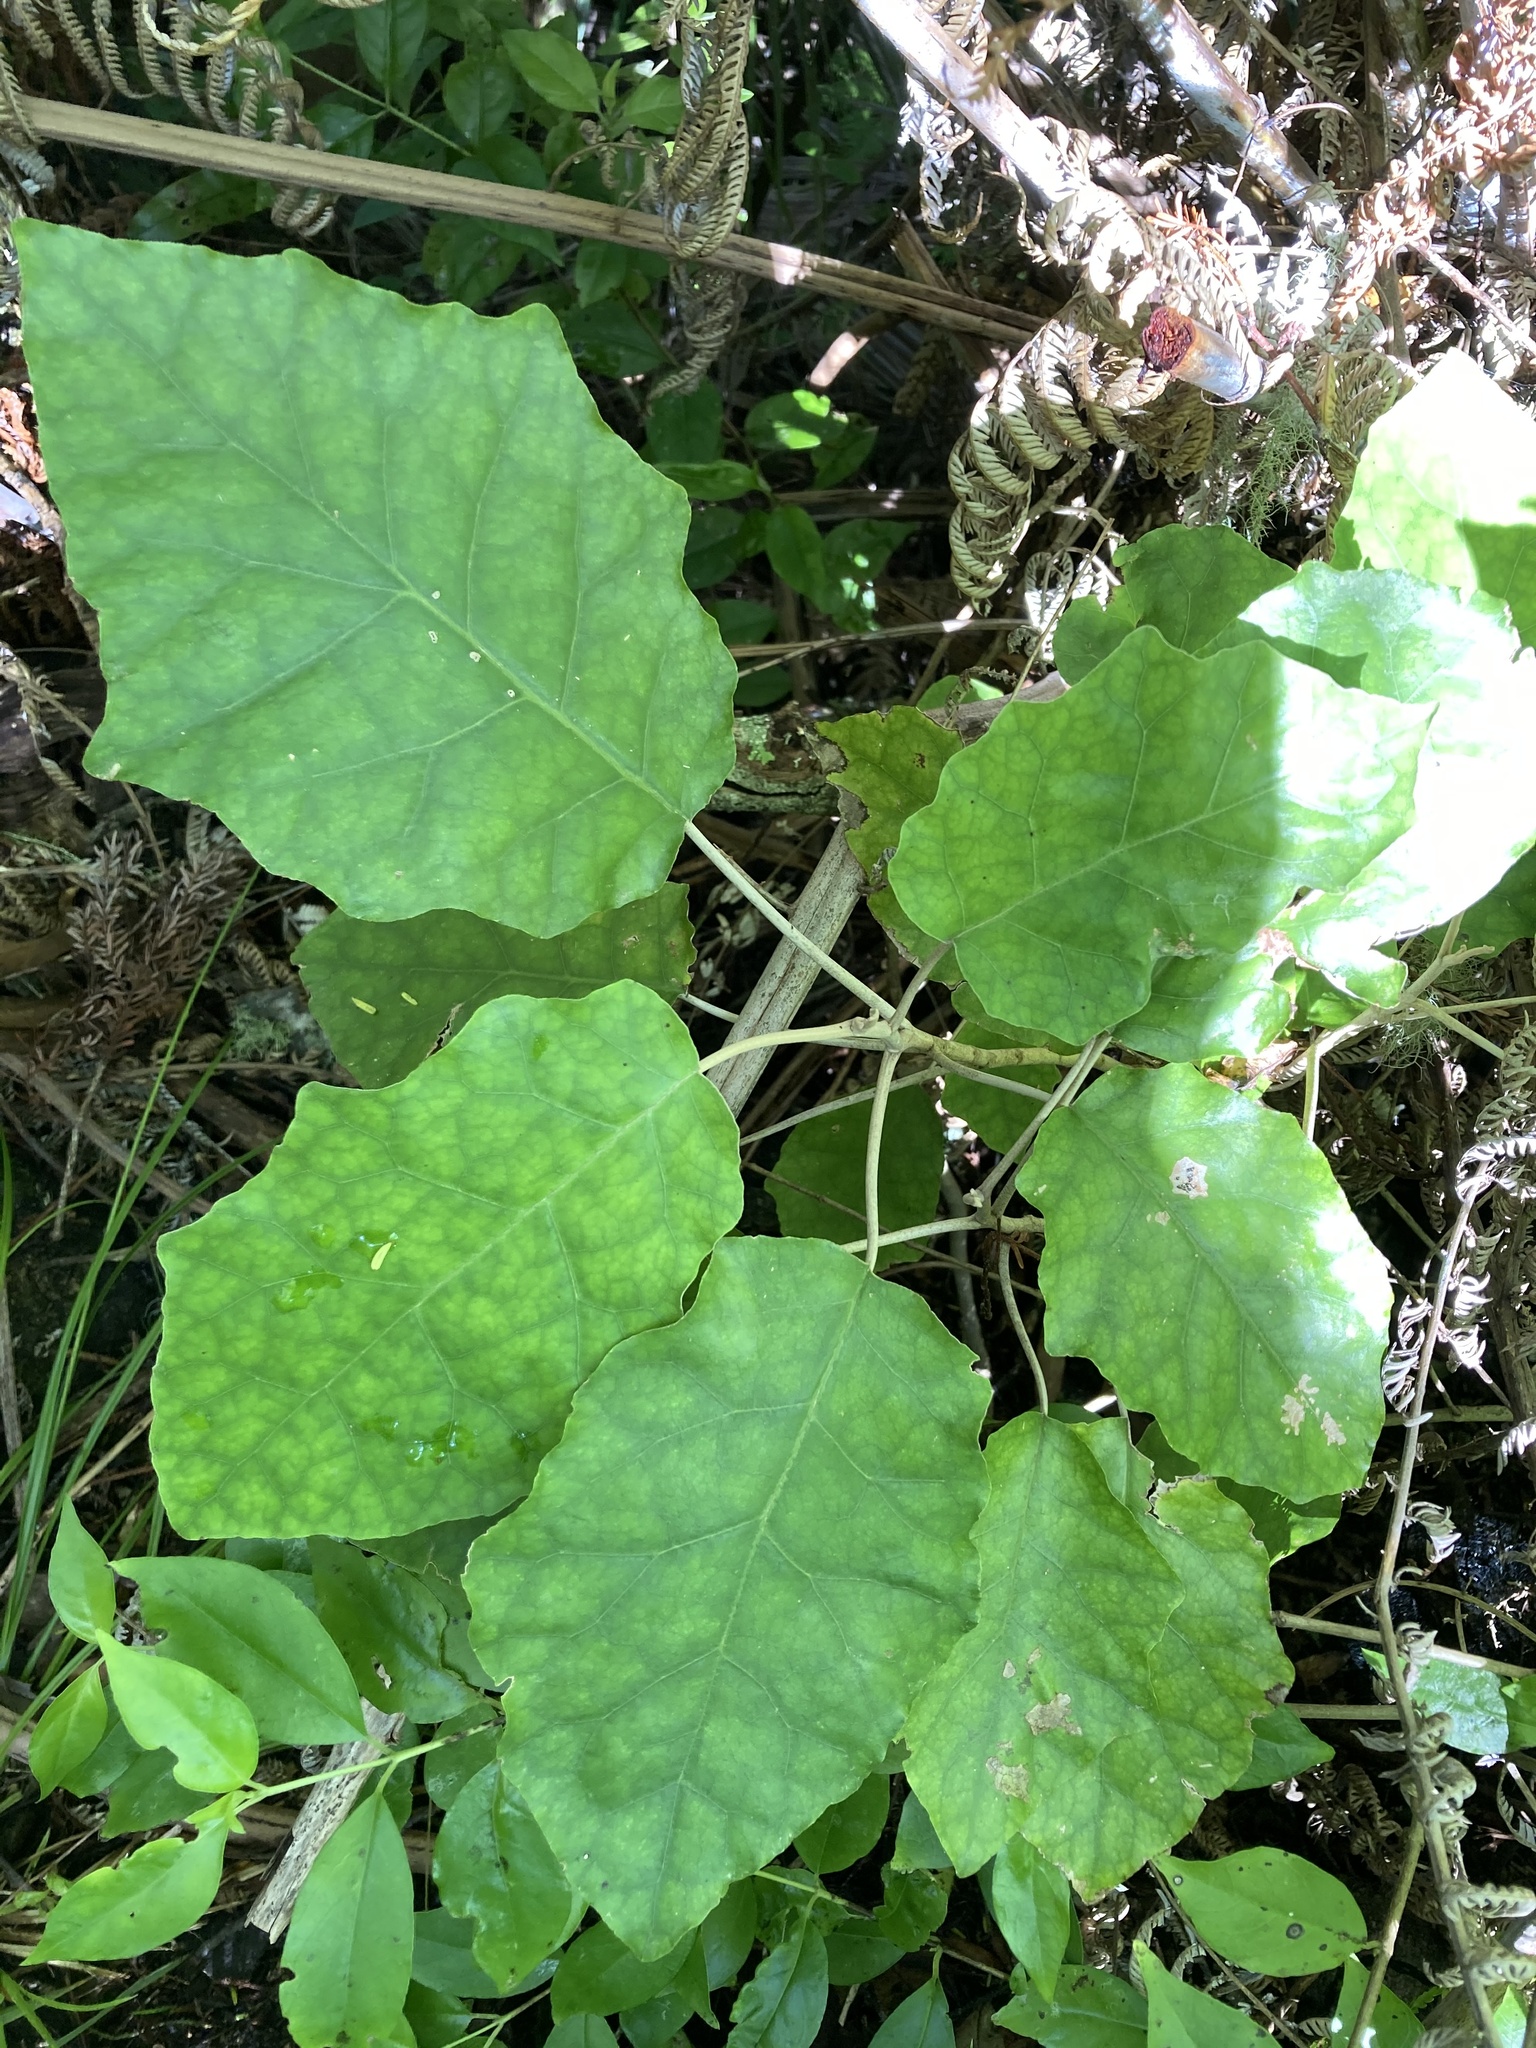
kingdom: Plantae
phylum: Tracheophyta
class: Magnoliopsida
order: Asterales
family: Asteraceae
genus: Brachyglottis
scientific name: Brachyglottis repanda
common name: Hedge ragwort
